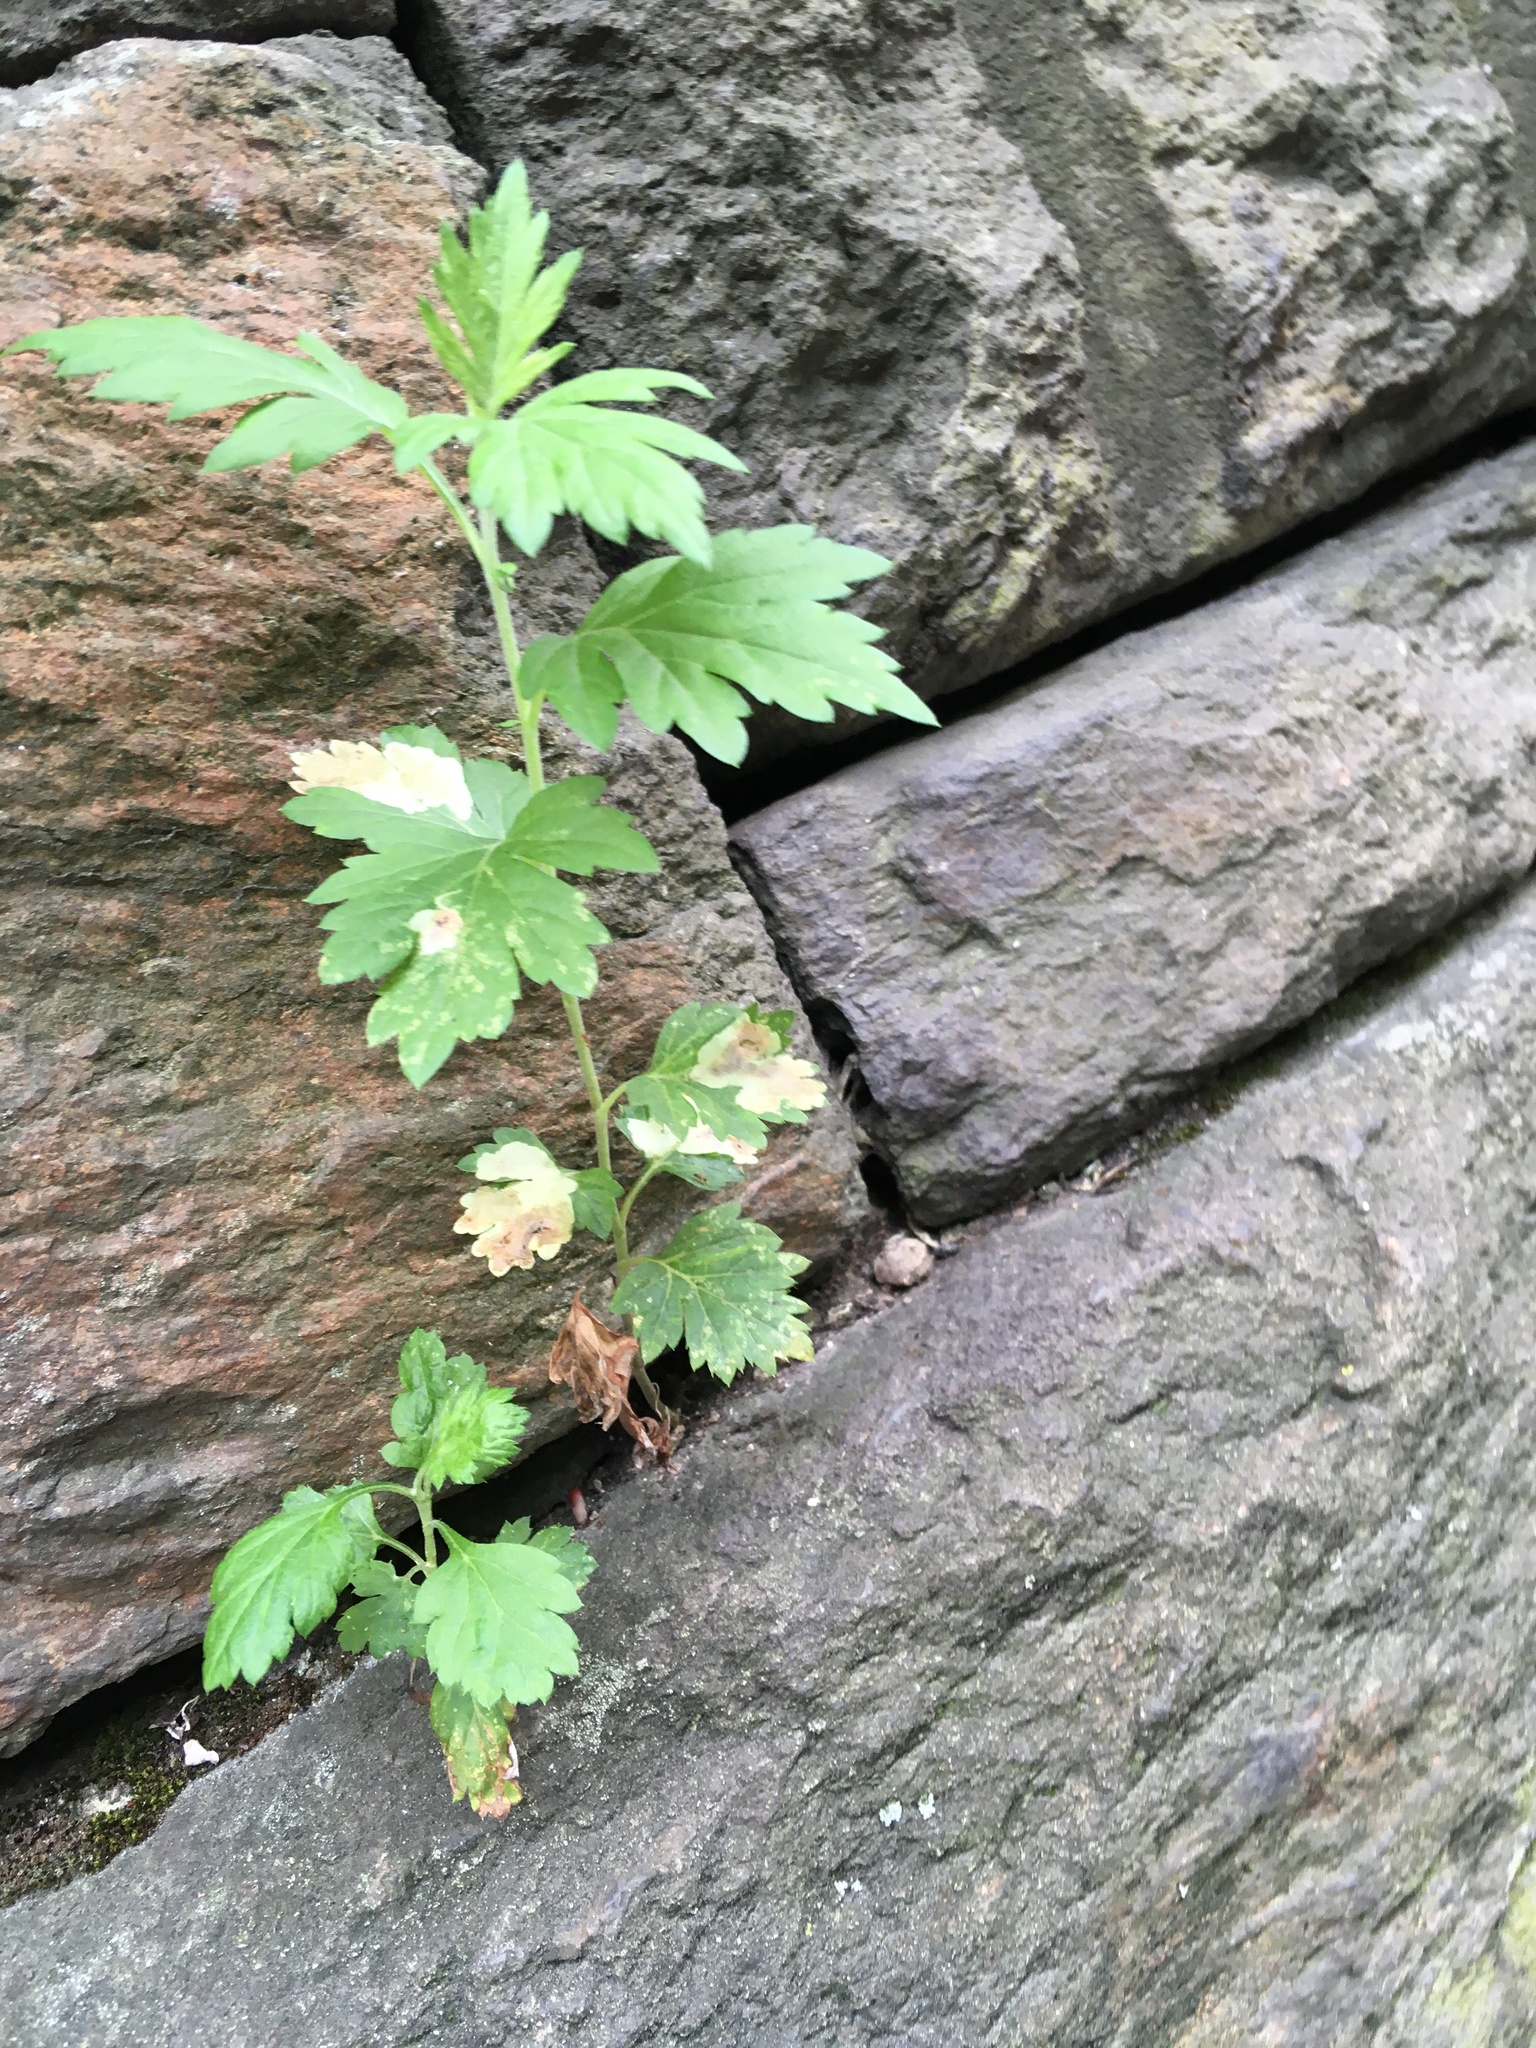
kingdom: Plantae
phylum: Tracheophyta
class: Magnoliopsida
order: Asterales
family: Asteraceae
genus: Artemisia
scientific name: Artemisia vulgaris
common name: Mugwort
